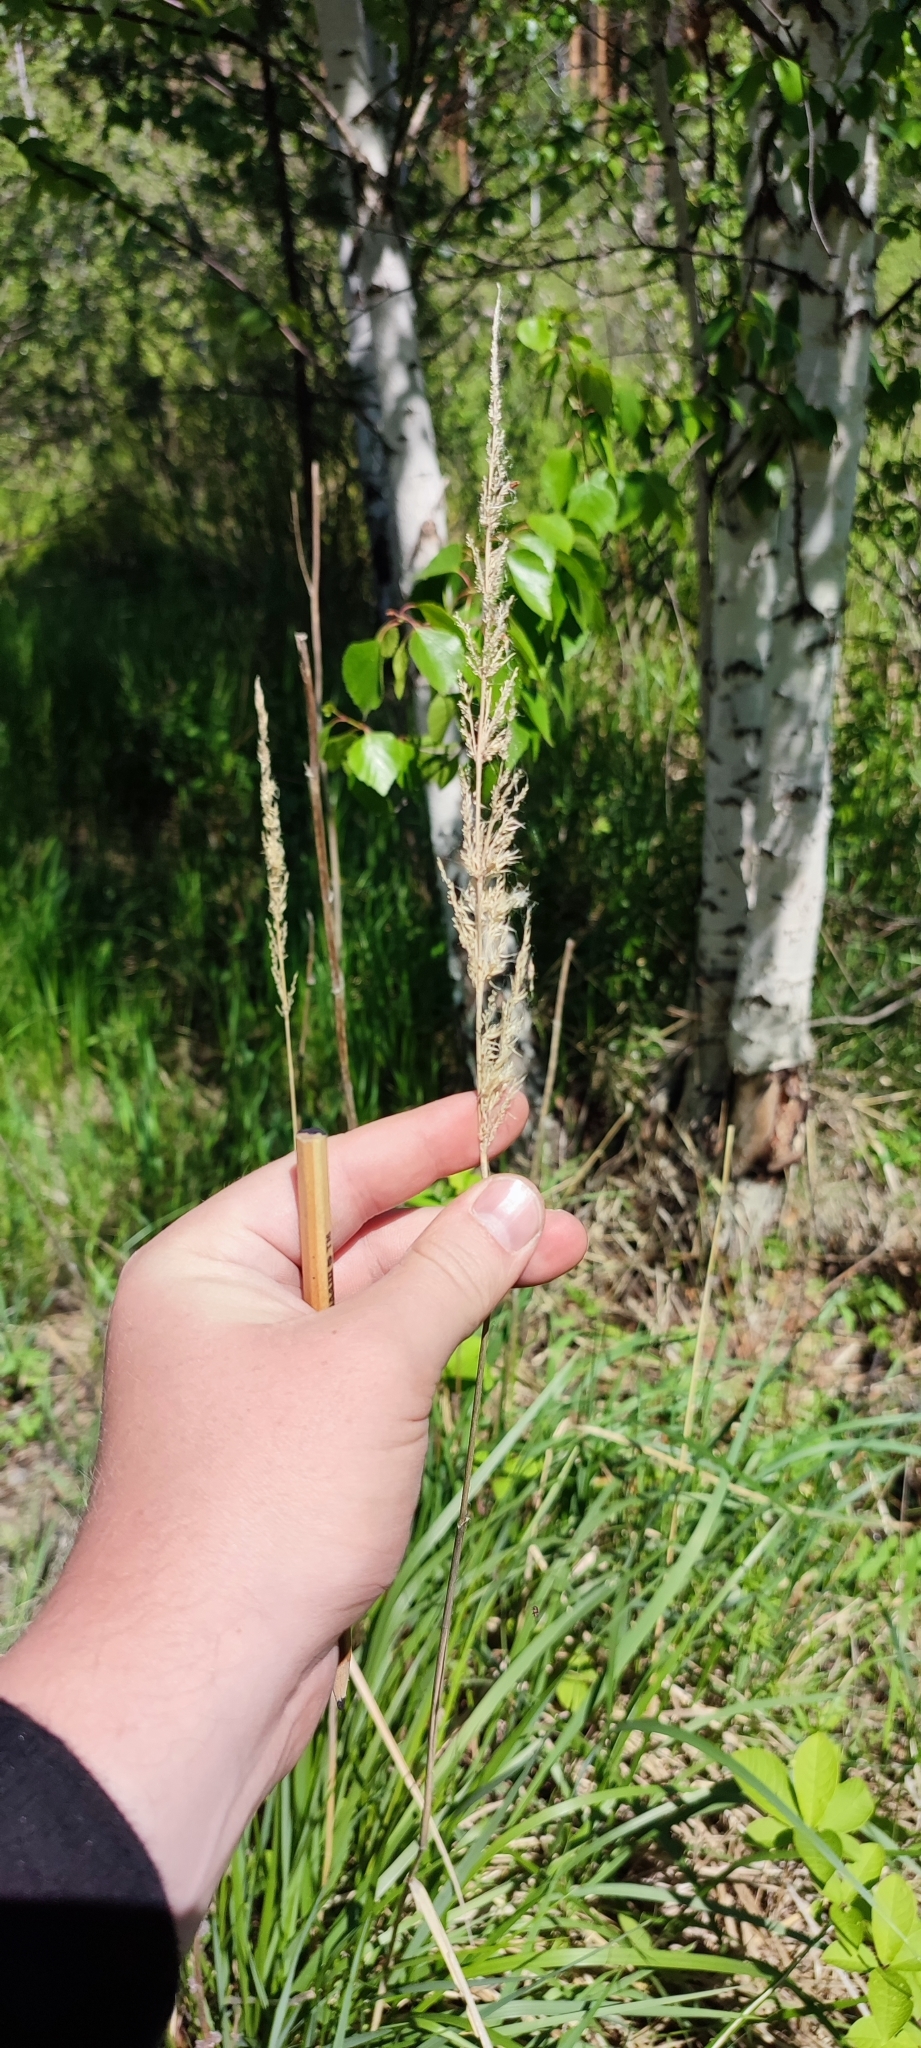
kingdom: Plantae
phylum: Tracheophyta
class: Liliopsida
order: Poales
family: Poaceae
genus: Calamagrostis
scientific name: Calamagrostis purpurea
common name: Scandinavian small-reed
